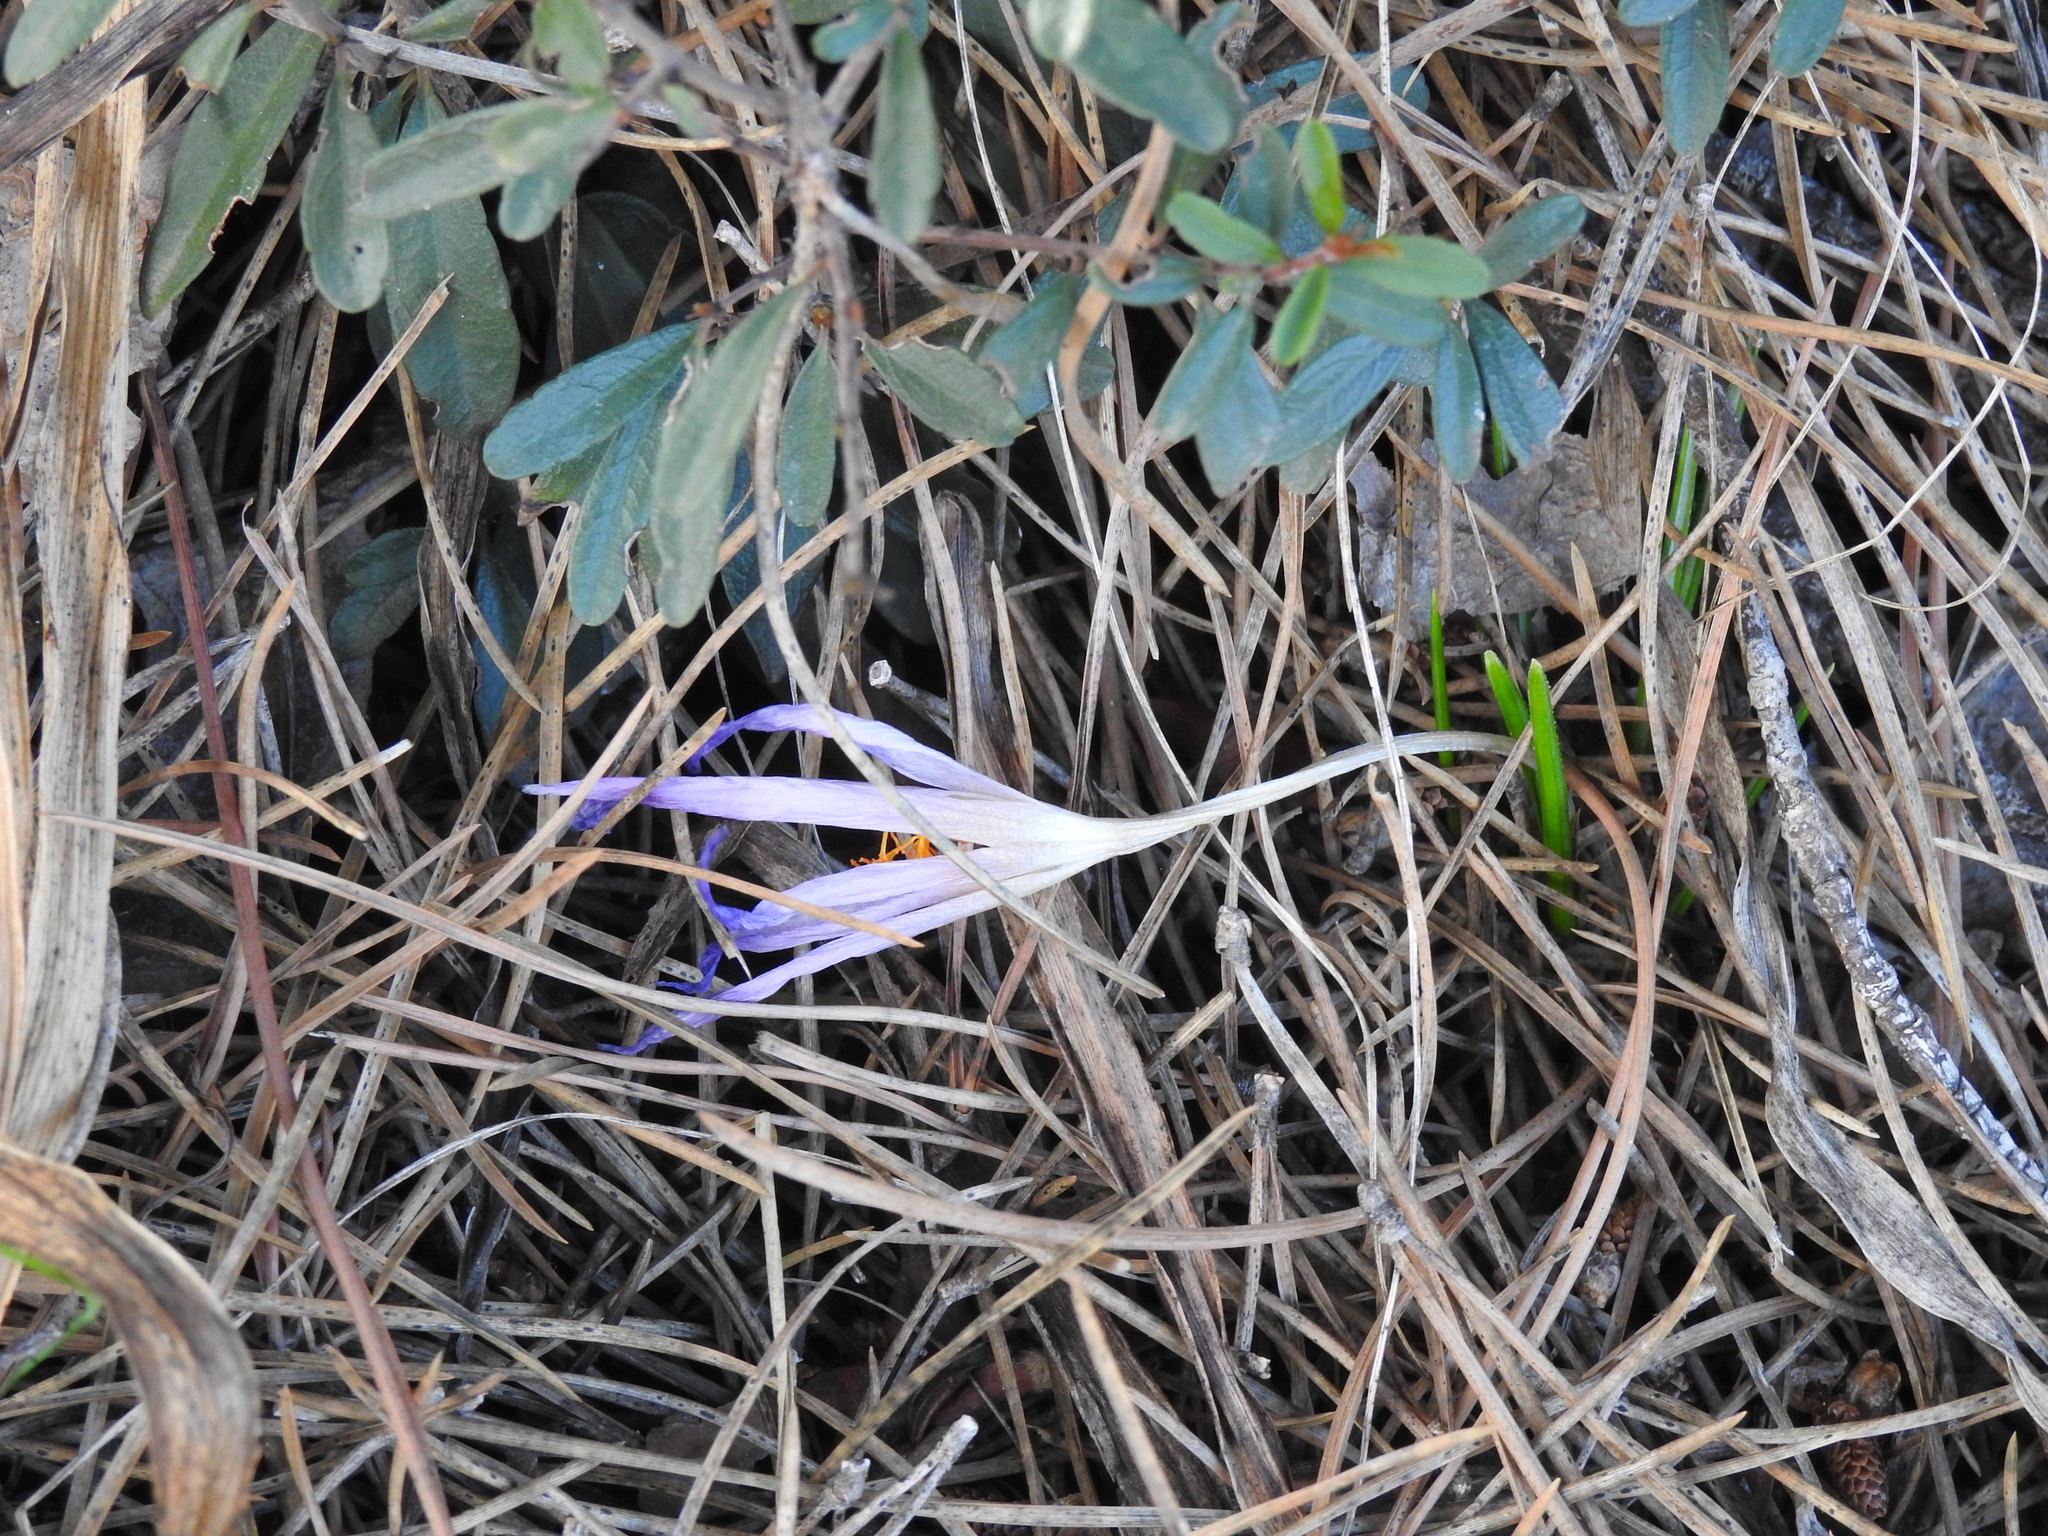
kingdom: Plantae
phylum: Tracheophyta
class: Liliopsida
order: Asparagales
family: Iridaceae
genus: Crocus
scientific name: Crocus serotinus
